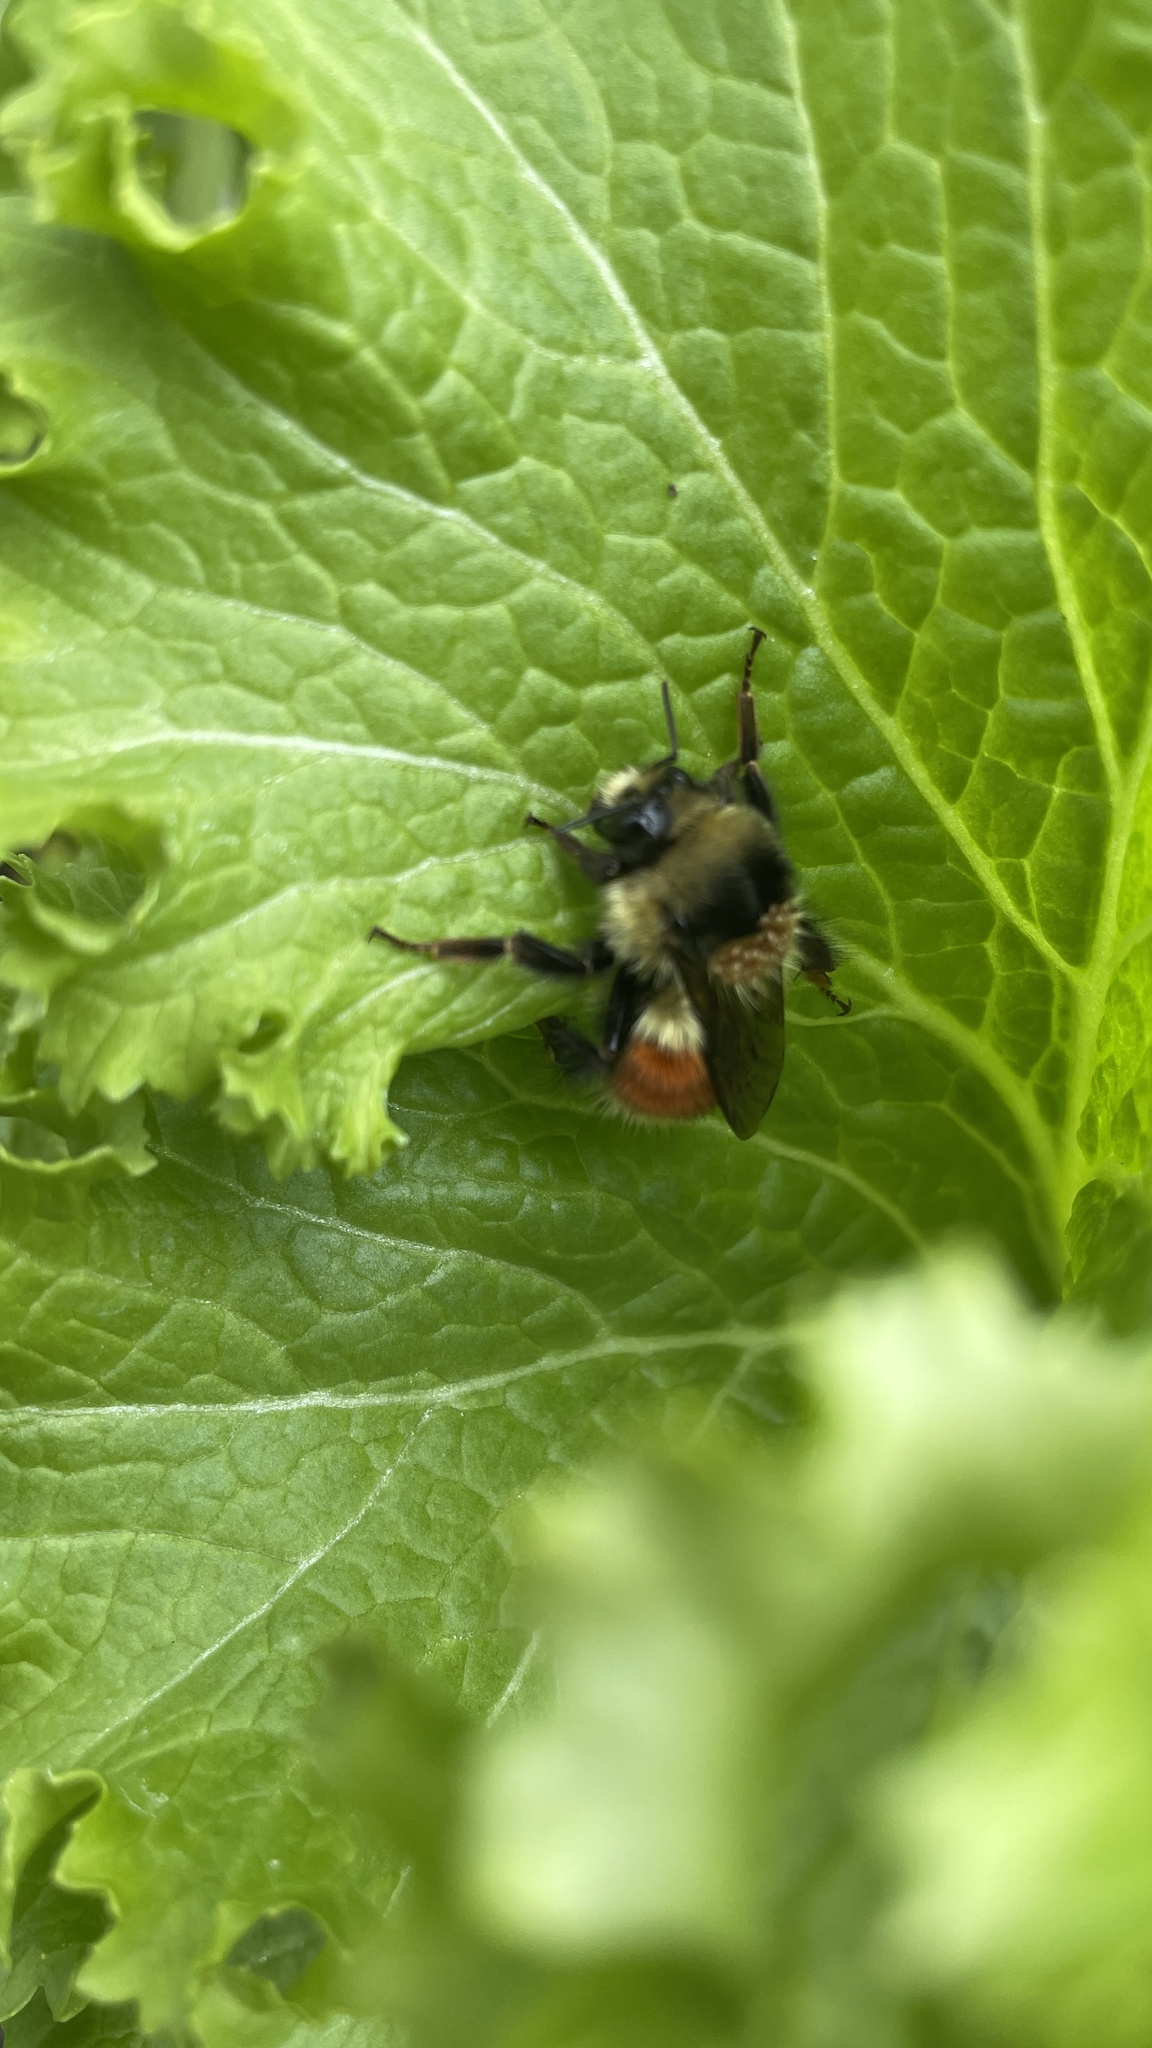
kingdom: Animalia
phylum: Arthropoda
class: Insecta
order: Hymenoptera
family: Apidae
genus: Bombus
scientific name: Bombus melanopygus
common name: Black tail bumble bee
